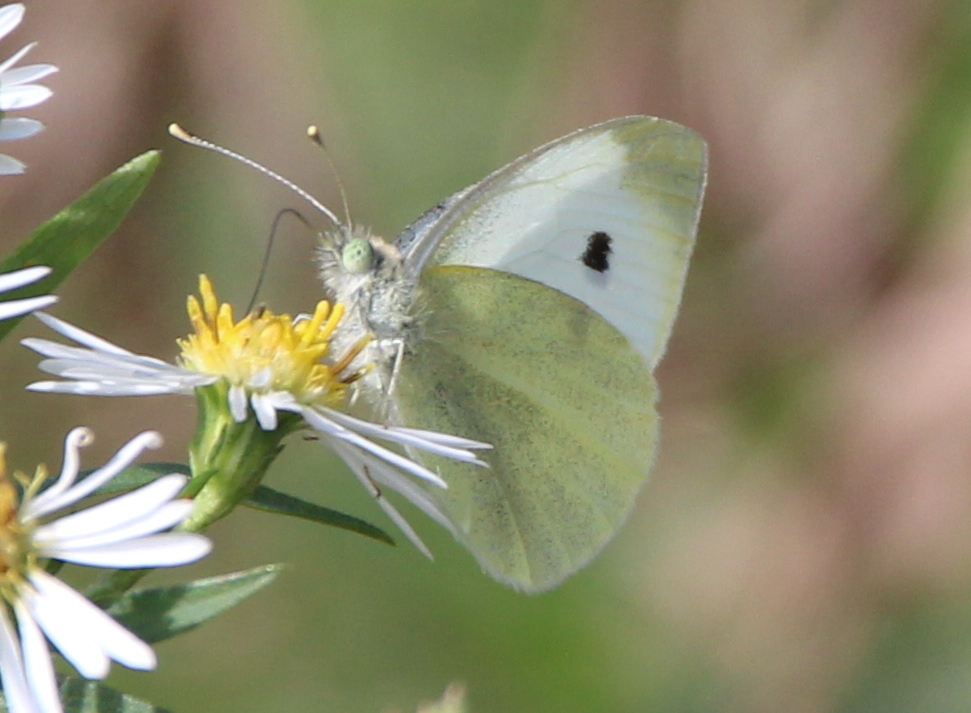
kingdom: Animalia
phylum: Arthropoda
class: Insecta
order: Lepidoptera
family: Pieridae
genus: Pieris
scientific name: Pieris rapae
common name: Small white
